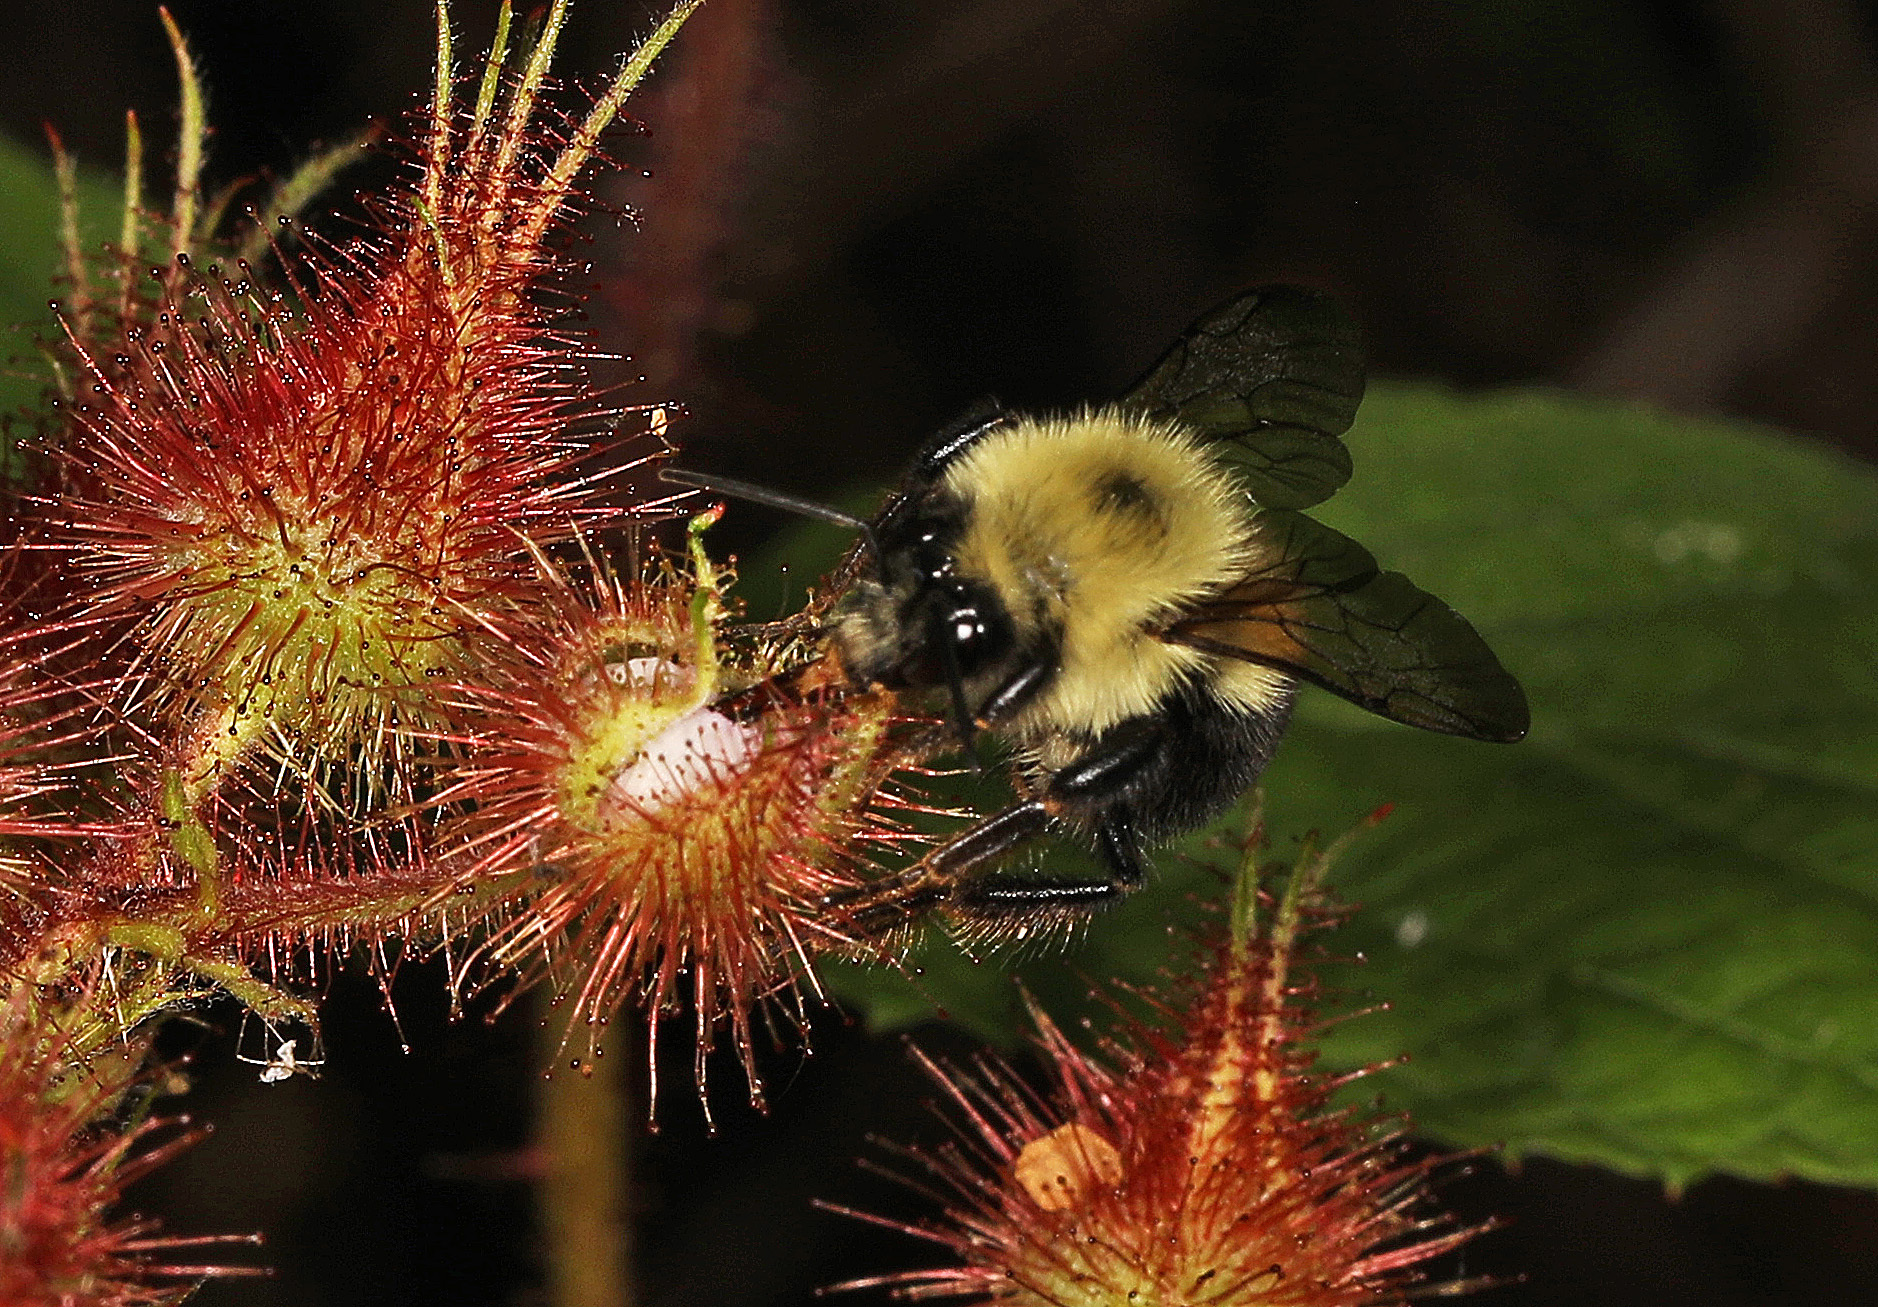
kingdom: Animalia
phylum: Arthropoda
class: Insecta
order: Hymenoptera
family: Apidae
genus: Bombus
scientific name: Bombus bimaculatus
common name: Two-spotted bumble bee
